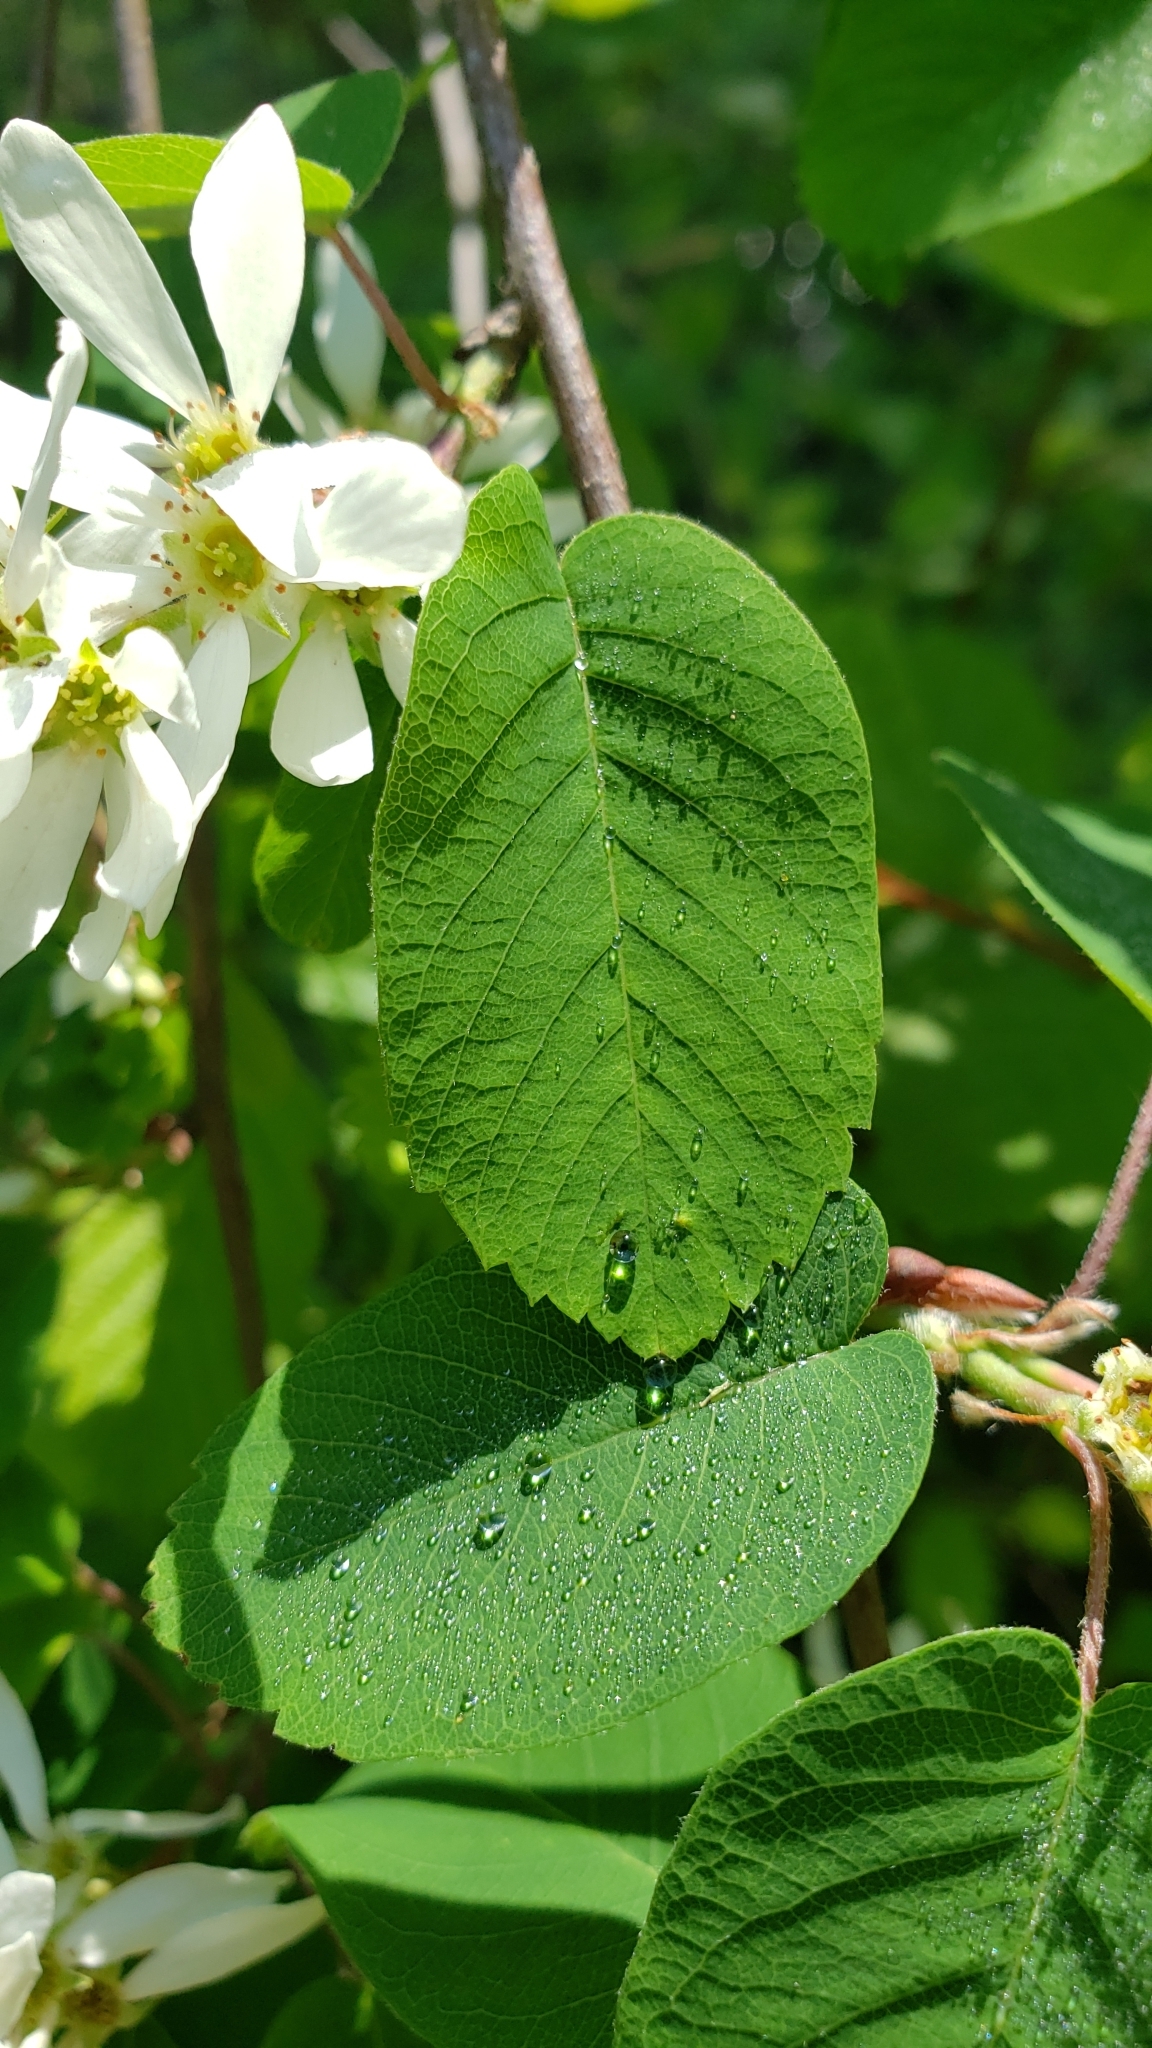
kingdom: Plantae
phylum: Tracheophyta
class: Magnoliopsida
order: Rosales
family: Rosaceae
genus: Amelanchier
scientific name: Amelanchier alnifolia
